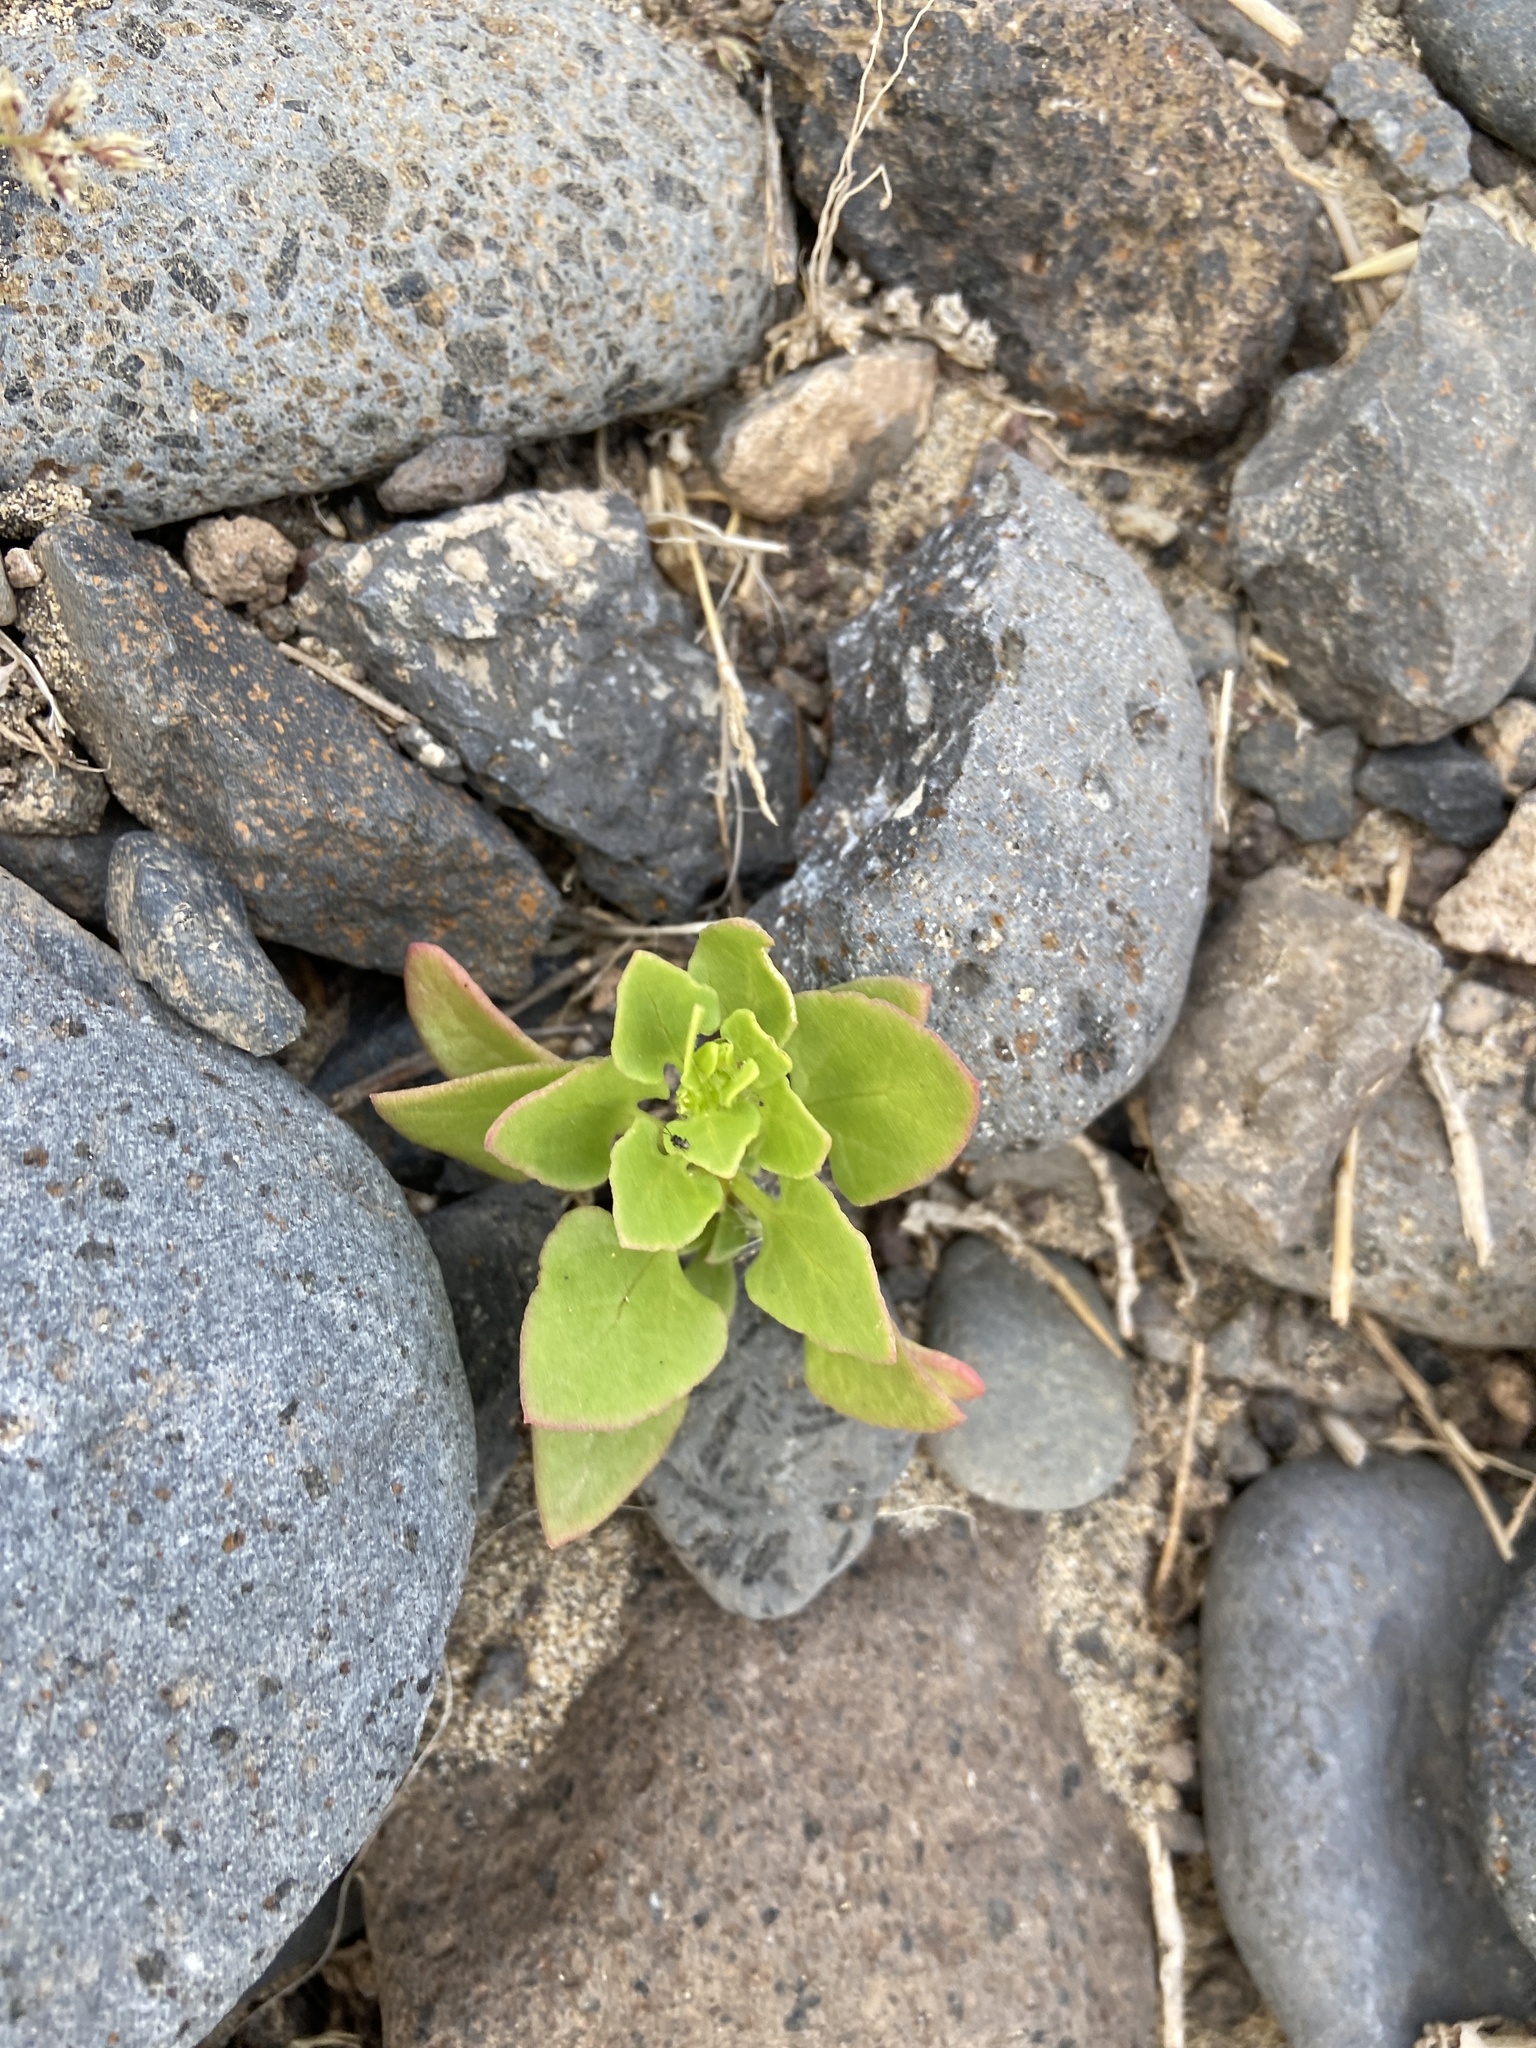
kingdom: Plantae
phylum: Tracheophyta
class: Magnoliopsida
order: Caryophyllales
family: Amaranthaceae
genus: Patellifolia
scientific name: Patellifolia procumbens
